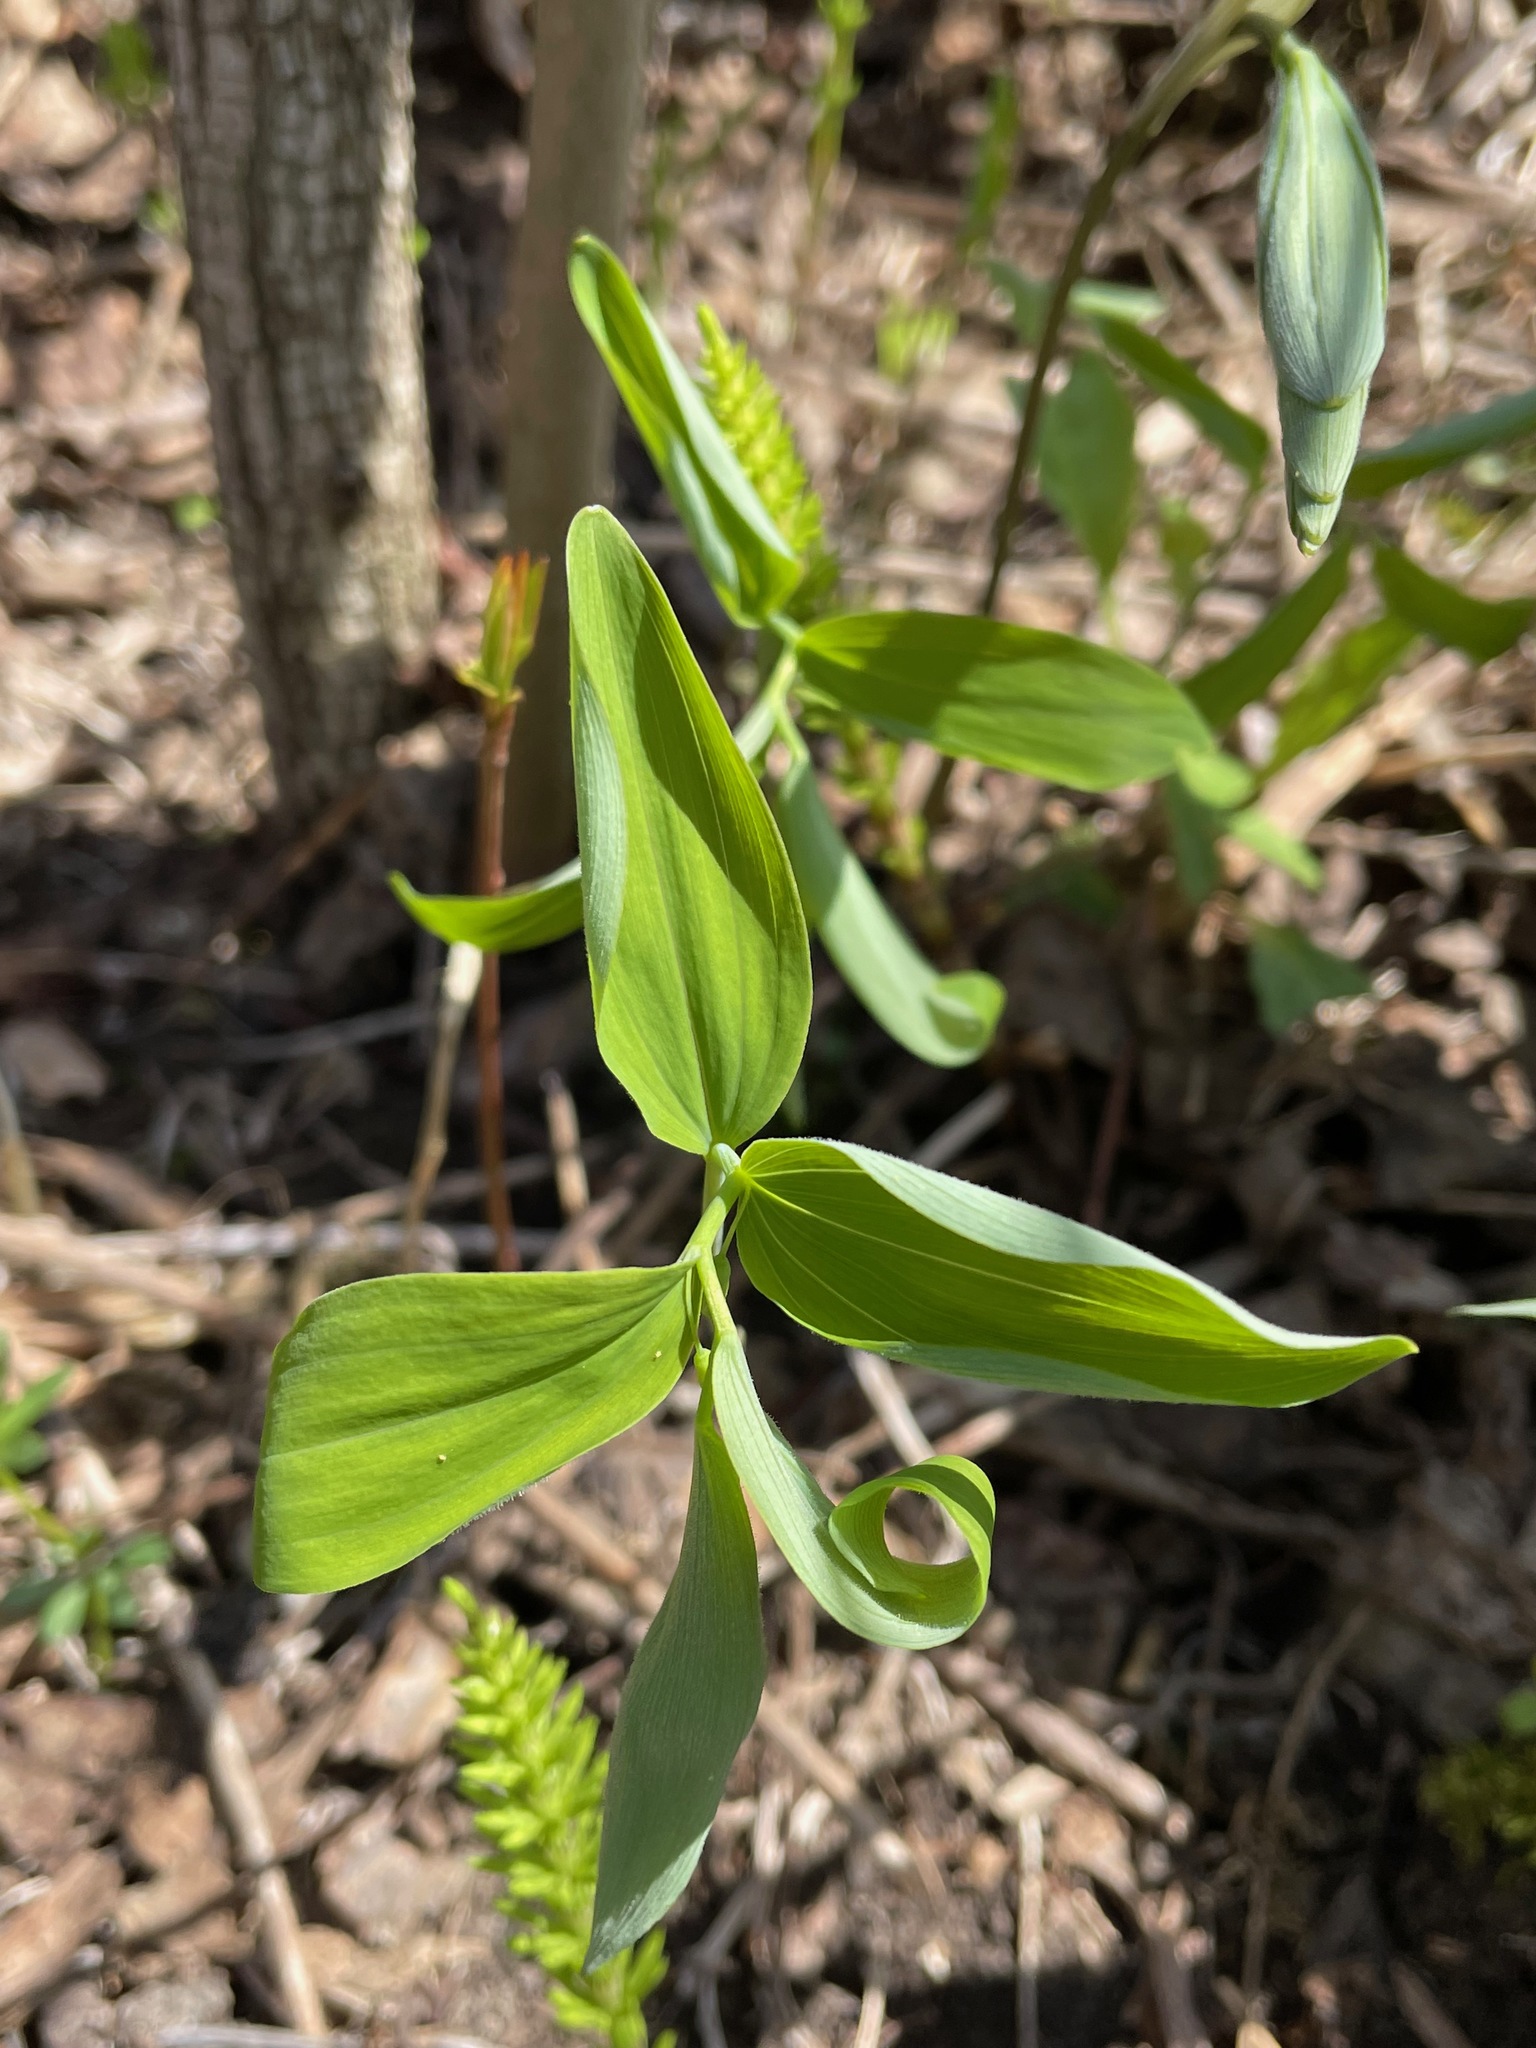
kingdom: Plantae
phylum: Tracheophyta
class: Liliopsida
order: Asparagales
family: Asparagaceae
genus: Polygonatum
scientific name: Polygonatum pubescens
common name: Downy solomon's seal
